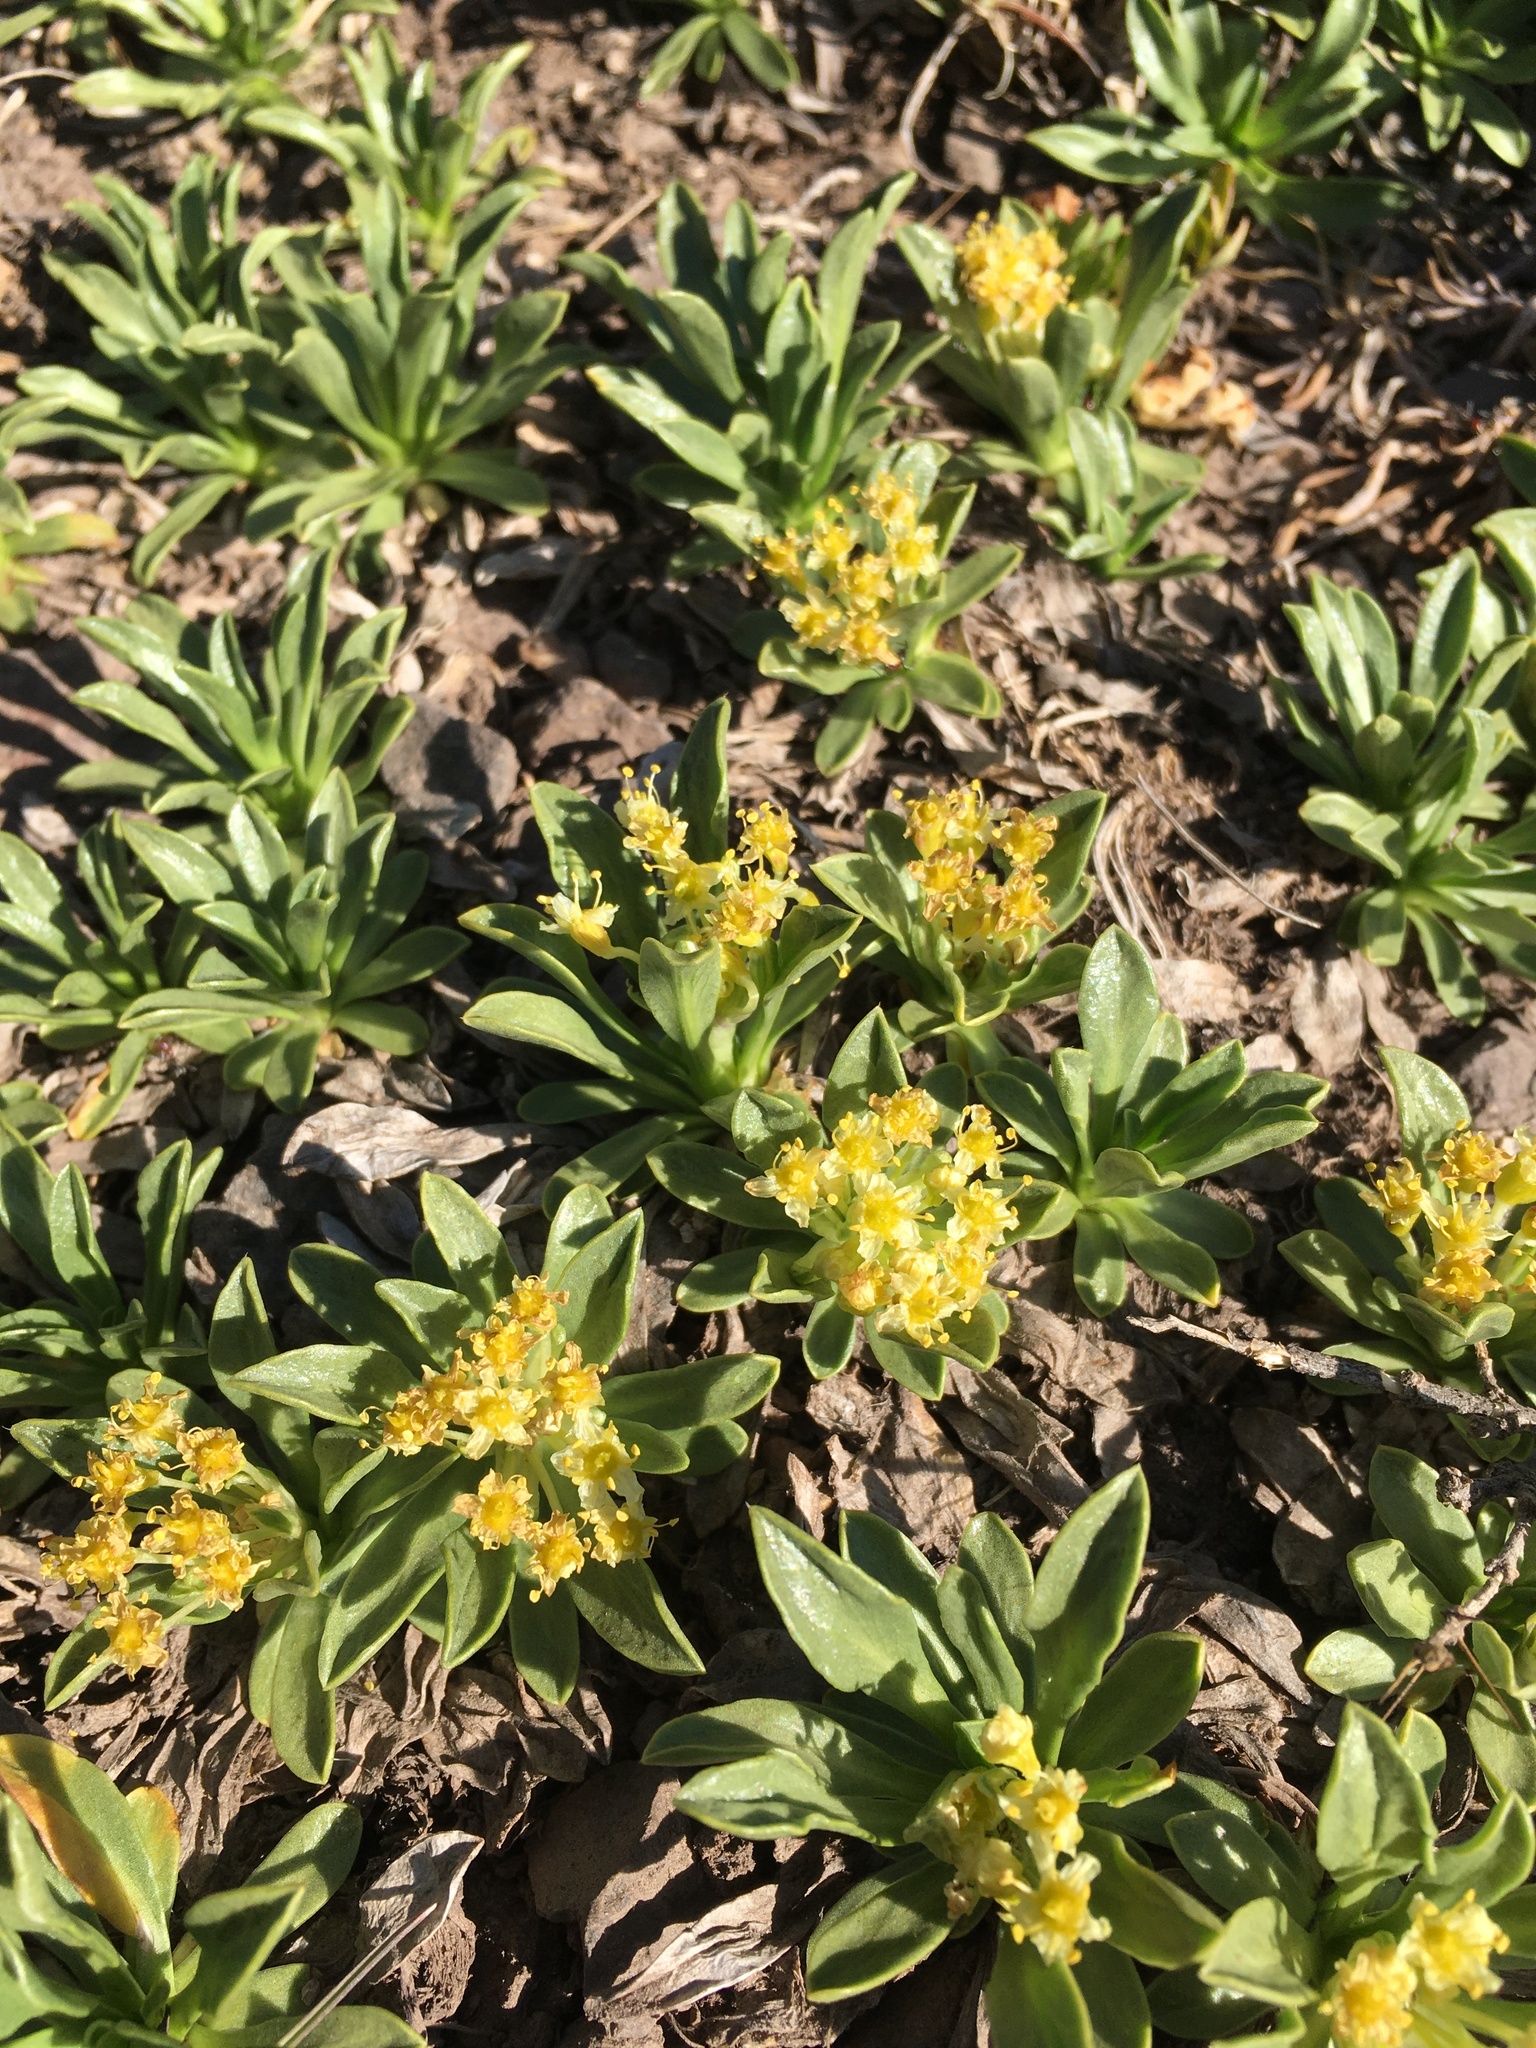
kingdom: Plantae
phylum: Tracheophyta
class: Magnoliopsida
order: Apiales
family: Apiaceae
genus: Azorella
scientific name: Azorella ruizii
